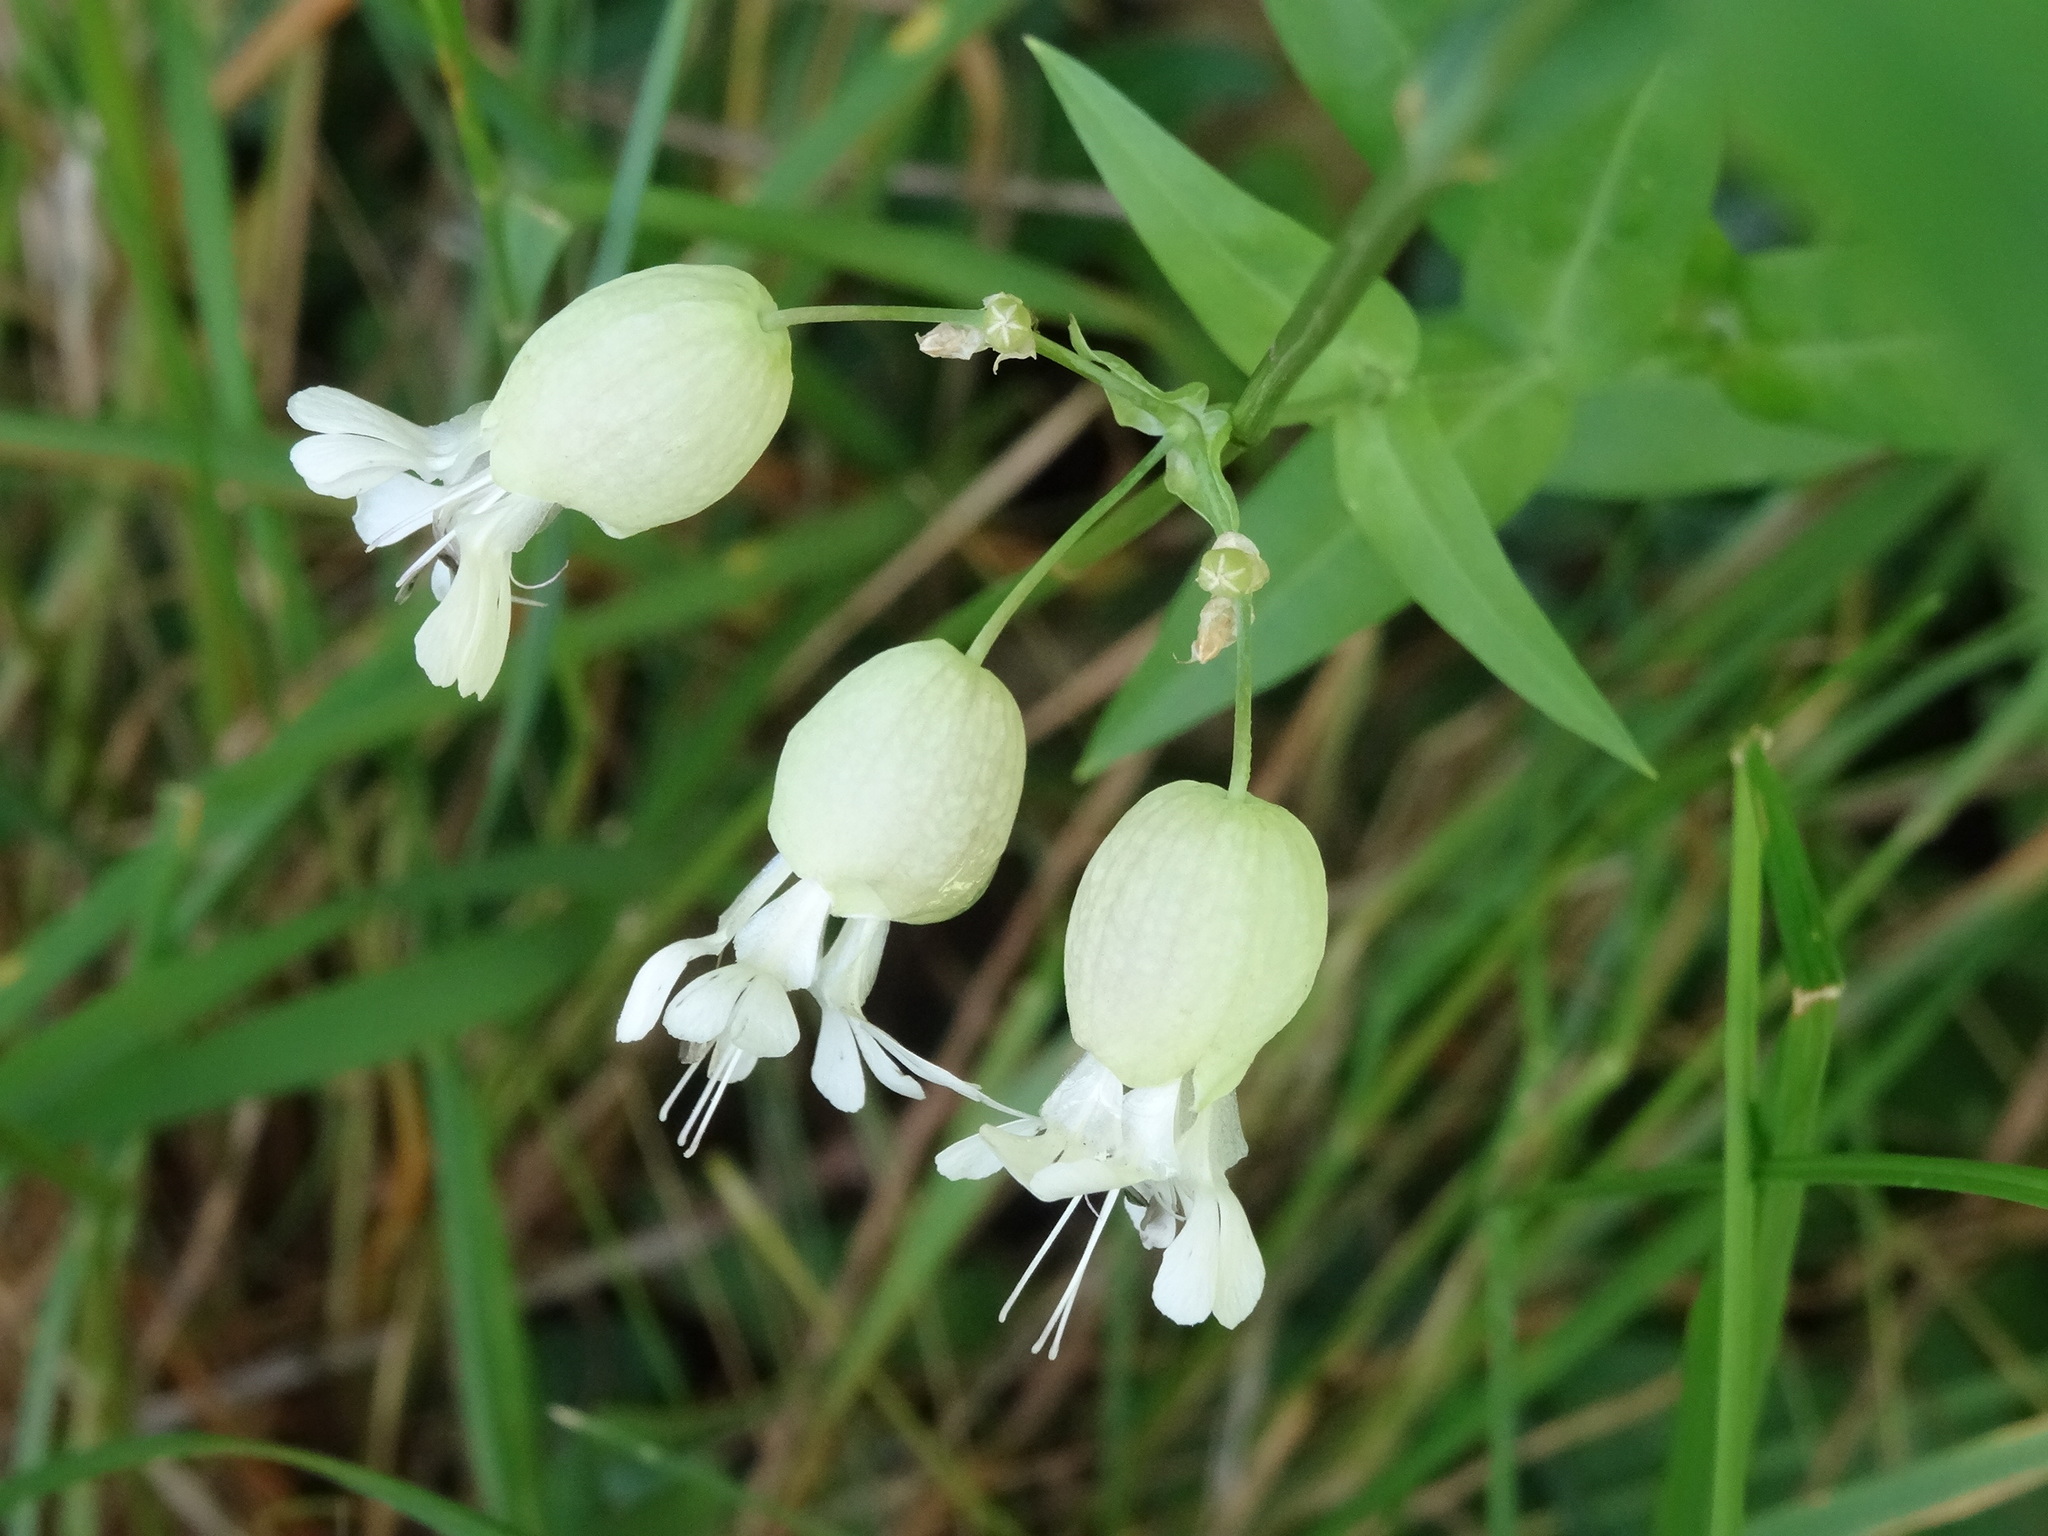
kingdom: Plantae
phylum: Tracheophyta
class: Magnoliopsida
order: Caryophyllales
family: Caryophyllaceae
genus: Silene
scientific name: Silene vulgaris
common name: Bladder campion
